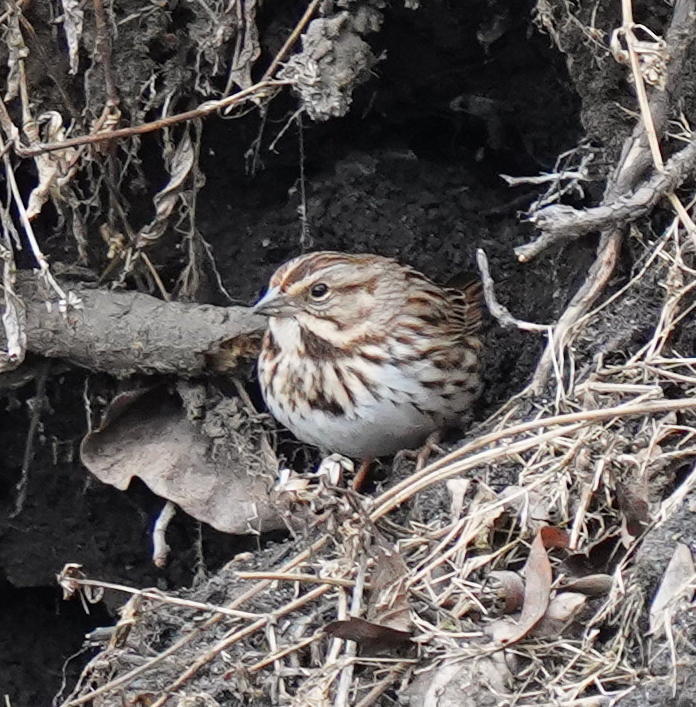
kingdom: Animalia
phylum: Chordata
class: Aves
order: Passeriformes
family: Passerellidae
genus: Melospiza
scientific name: Melospiza melodia
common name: Song sparrow
